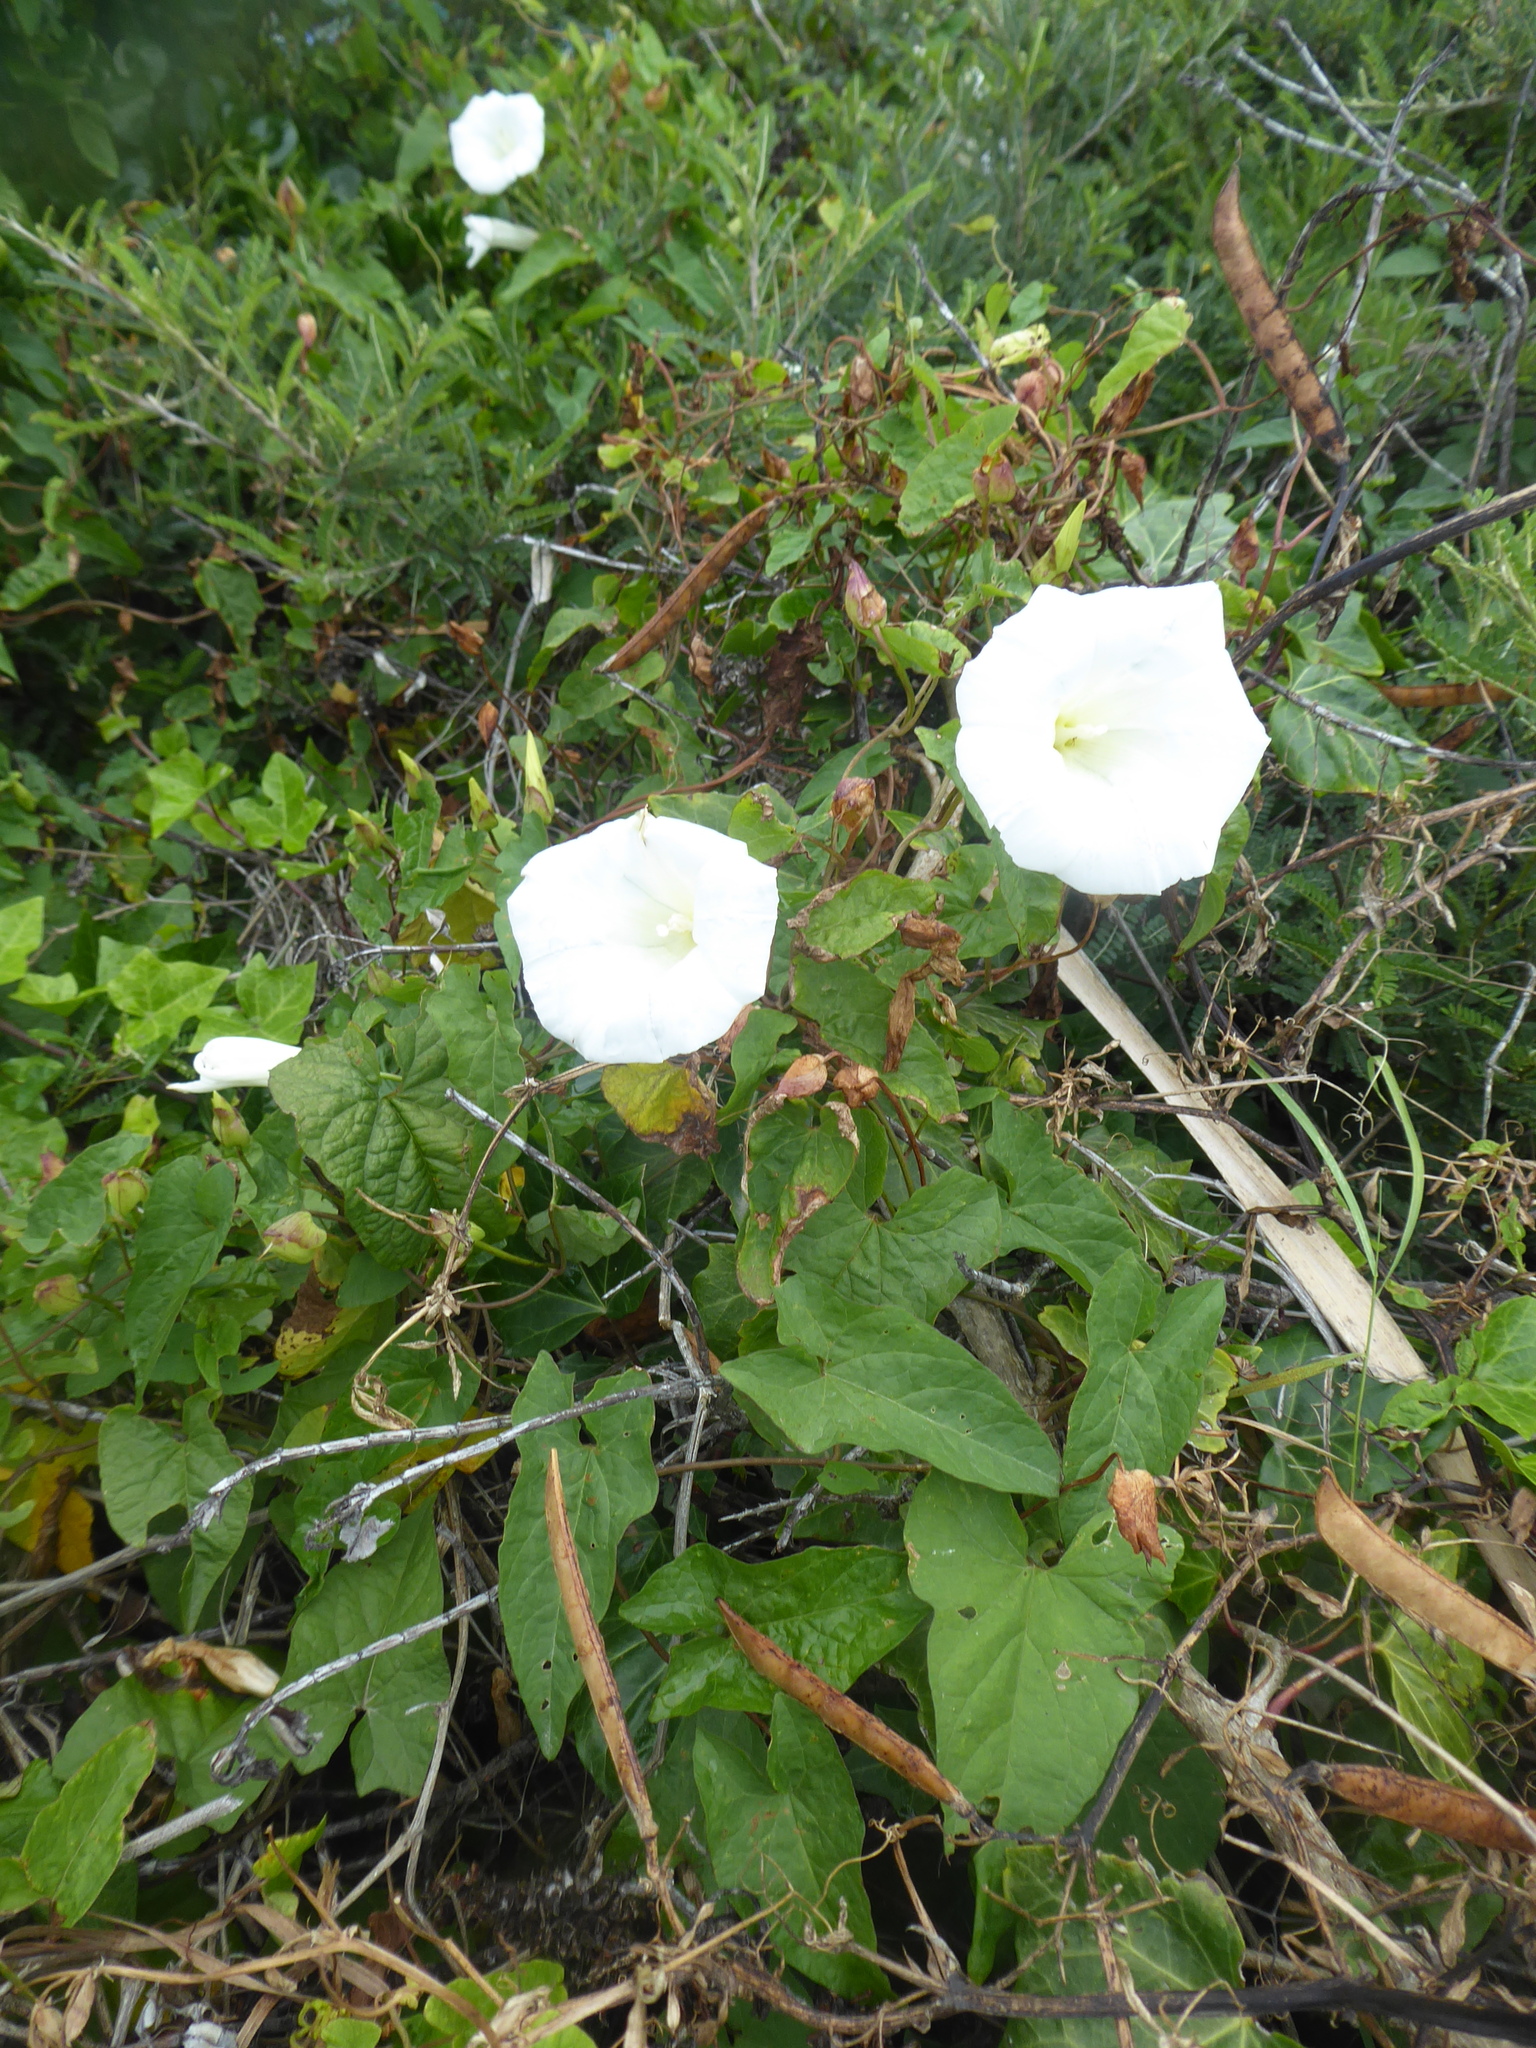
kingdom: Plantae
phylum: Tracheophyta
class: Magnoliopsida
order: Solanales
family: Convolvulaceae
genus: Calystegia
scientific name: Calystegia silvatica
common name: Large bindweed
